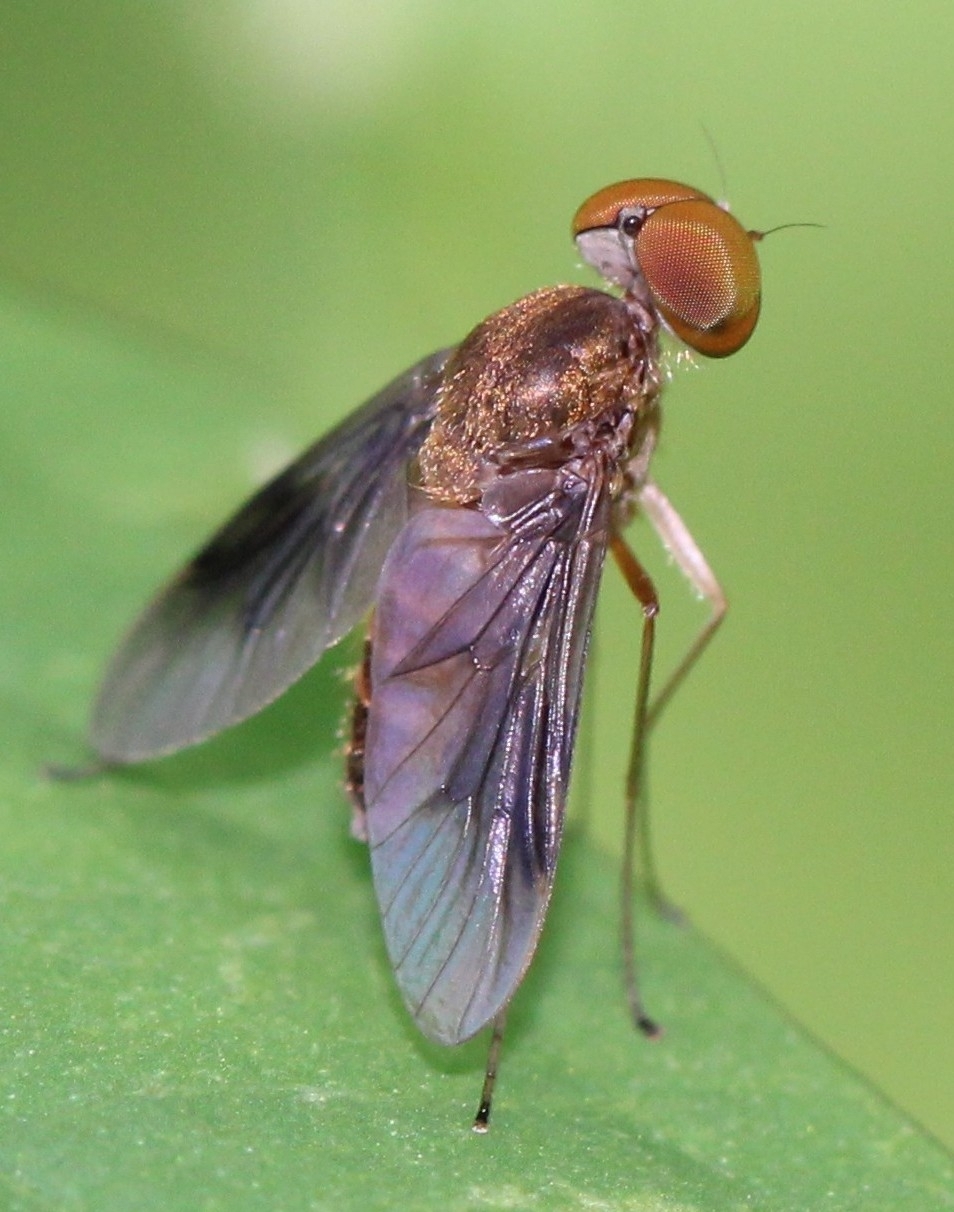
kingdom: Animalia
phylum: Arthropoda
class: Insecta
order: Diptera
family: Rhagionidae
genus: Chrysopilus
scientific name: Chrysopilus quadratus
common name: Quadrate snipe fly
